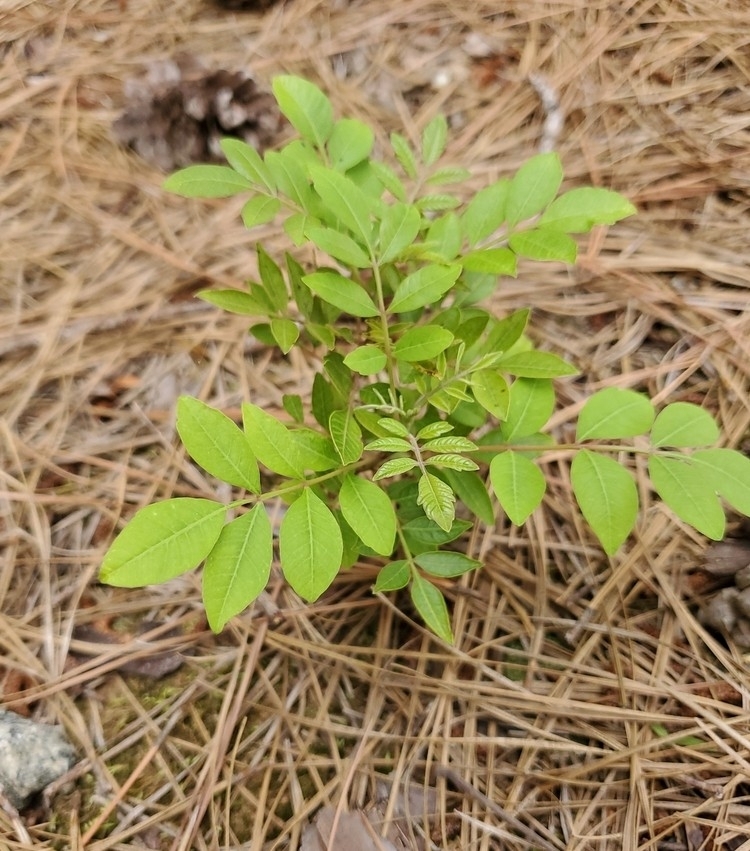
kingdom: Plantae
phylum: Tracheophyta
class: Magnoliopsida
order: Sapindales
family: Anacardiaceae
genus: Rhus
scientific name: Rhus copallina
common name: Shining sumac
